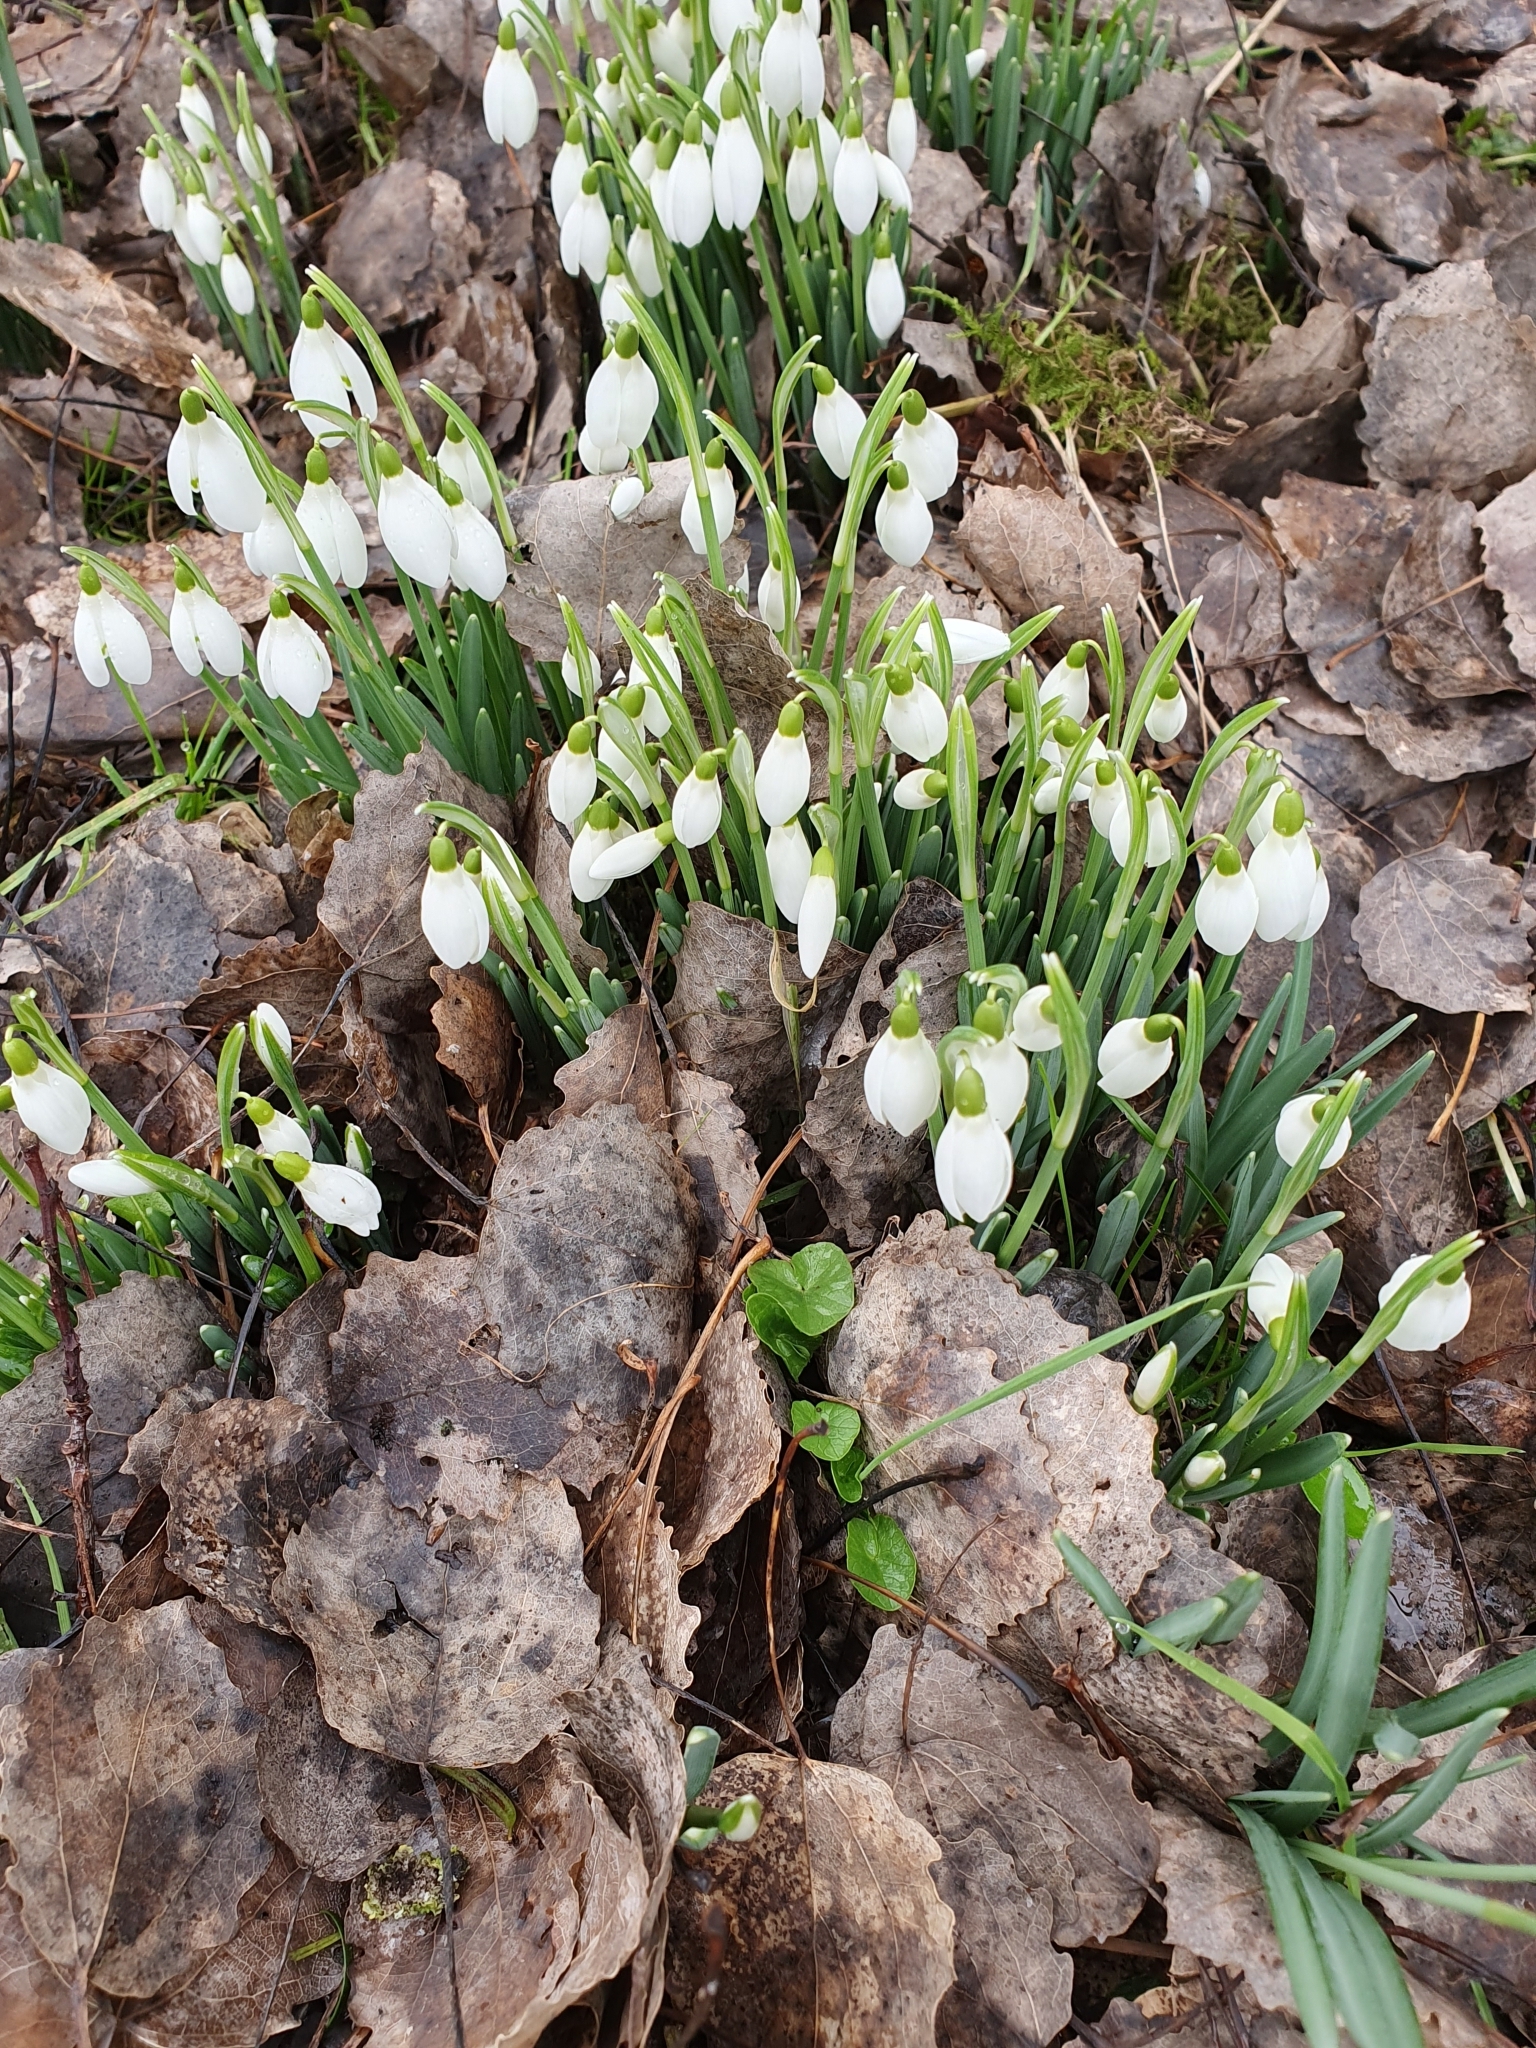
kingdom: Plantae
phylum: Tracheophyta
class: Liliopsida
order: Asparagales
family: Amaryllidaceae
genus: Galanthus
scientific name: Galanthus nivalis
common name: Snowdrop
